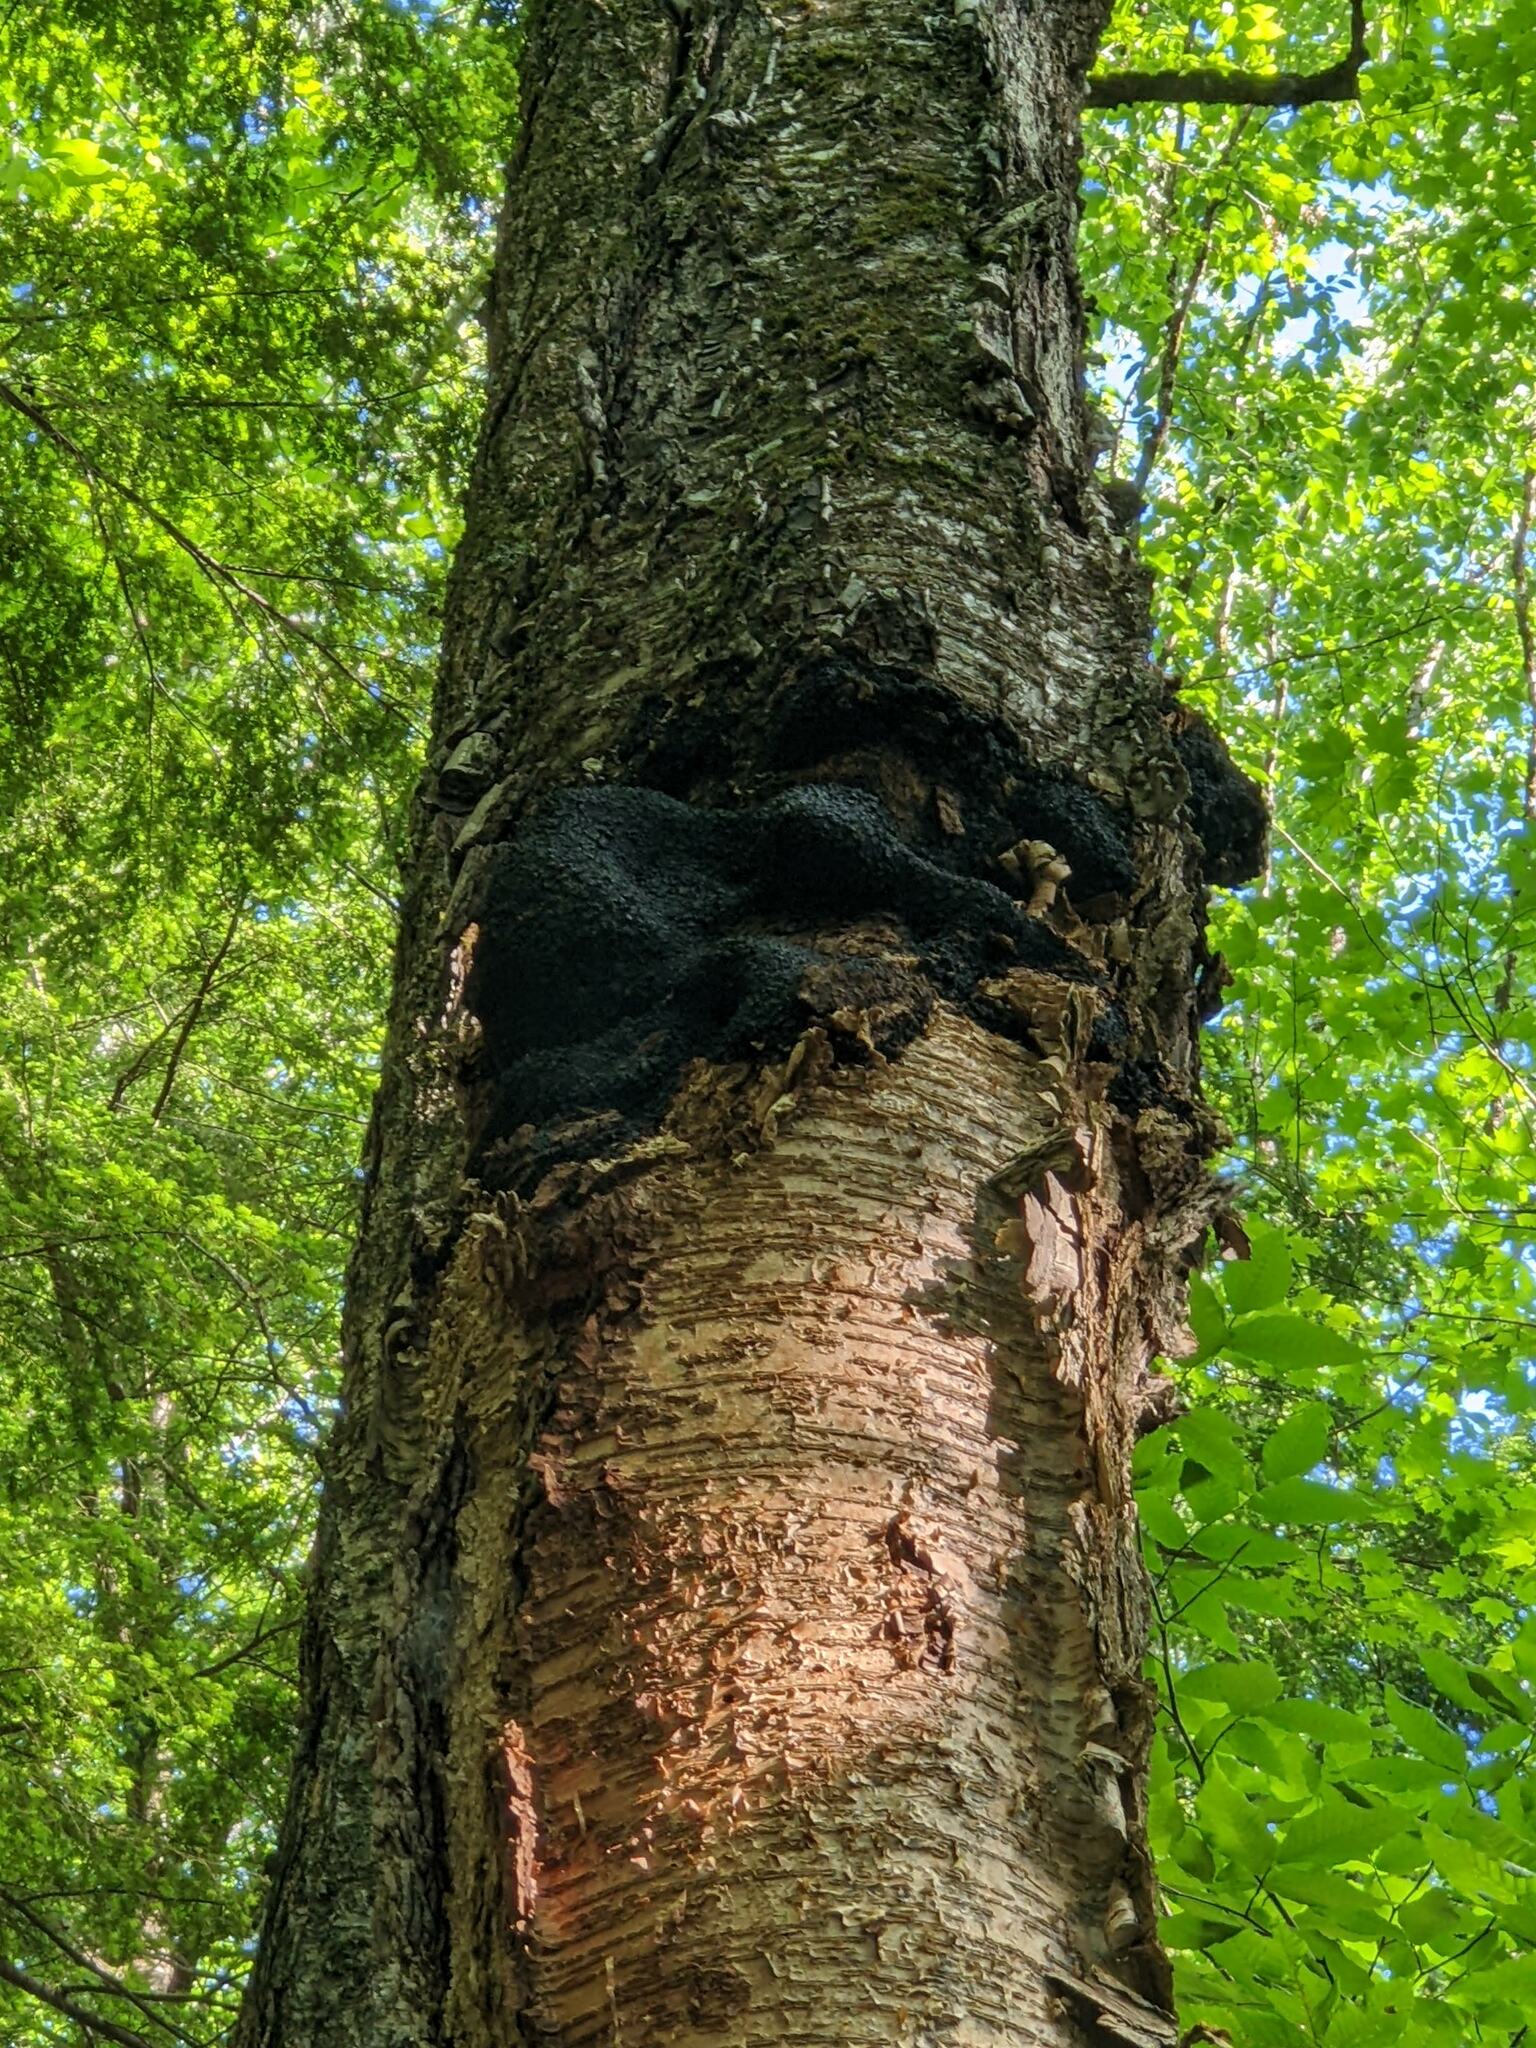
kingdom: Fungi
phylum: Basidiomycota
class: Agaricomycetes
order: Hymenochaetales
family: Hymenochaetaceae
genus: Inonotus
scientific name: Inonotus obliquus
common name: Chaga
